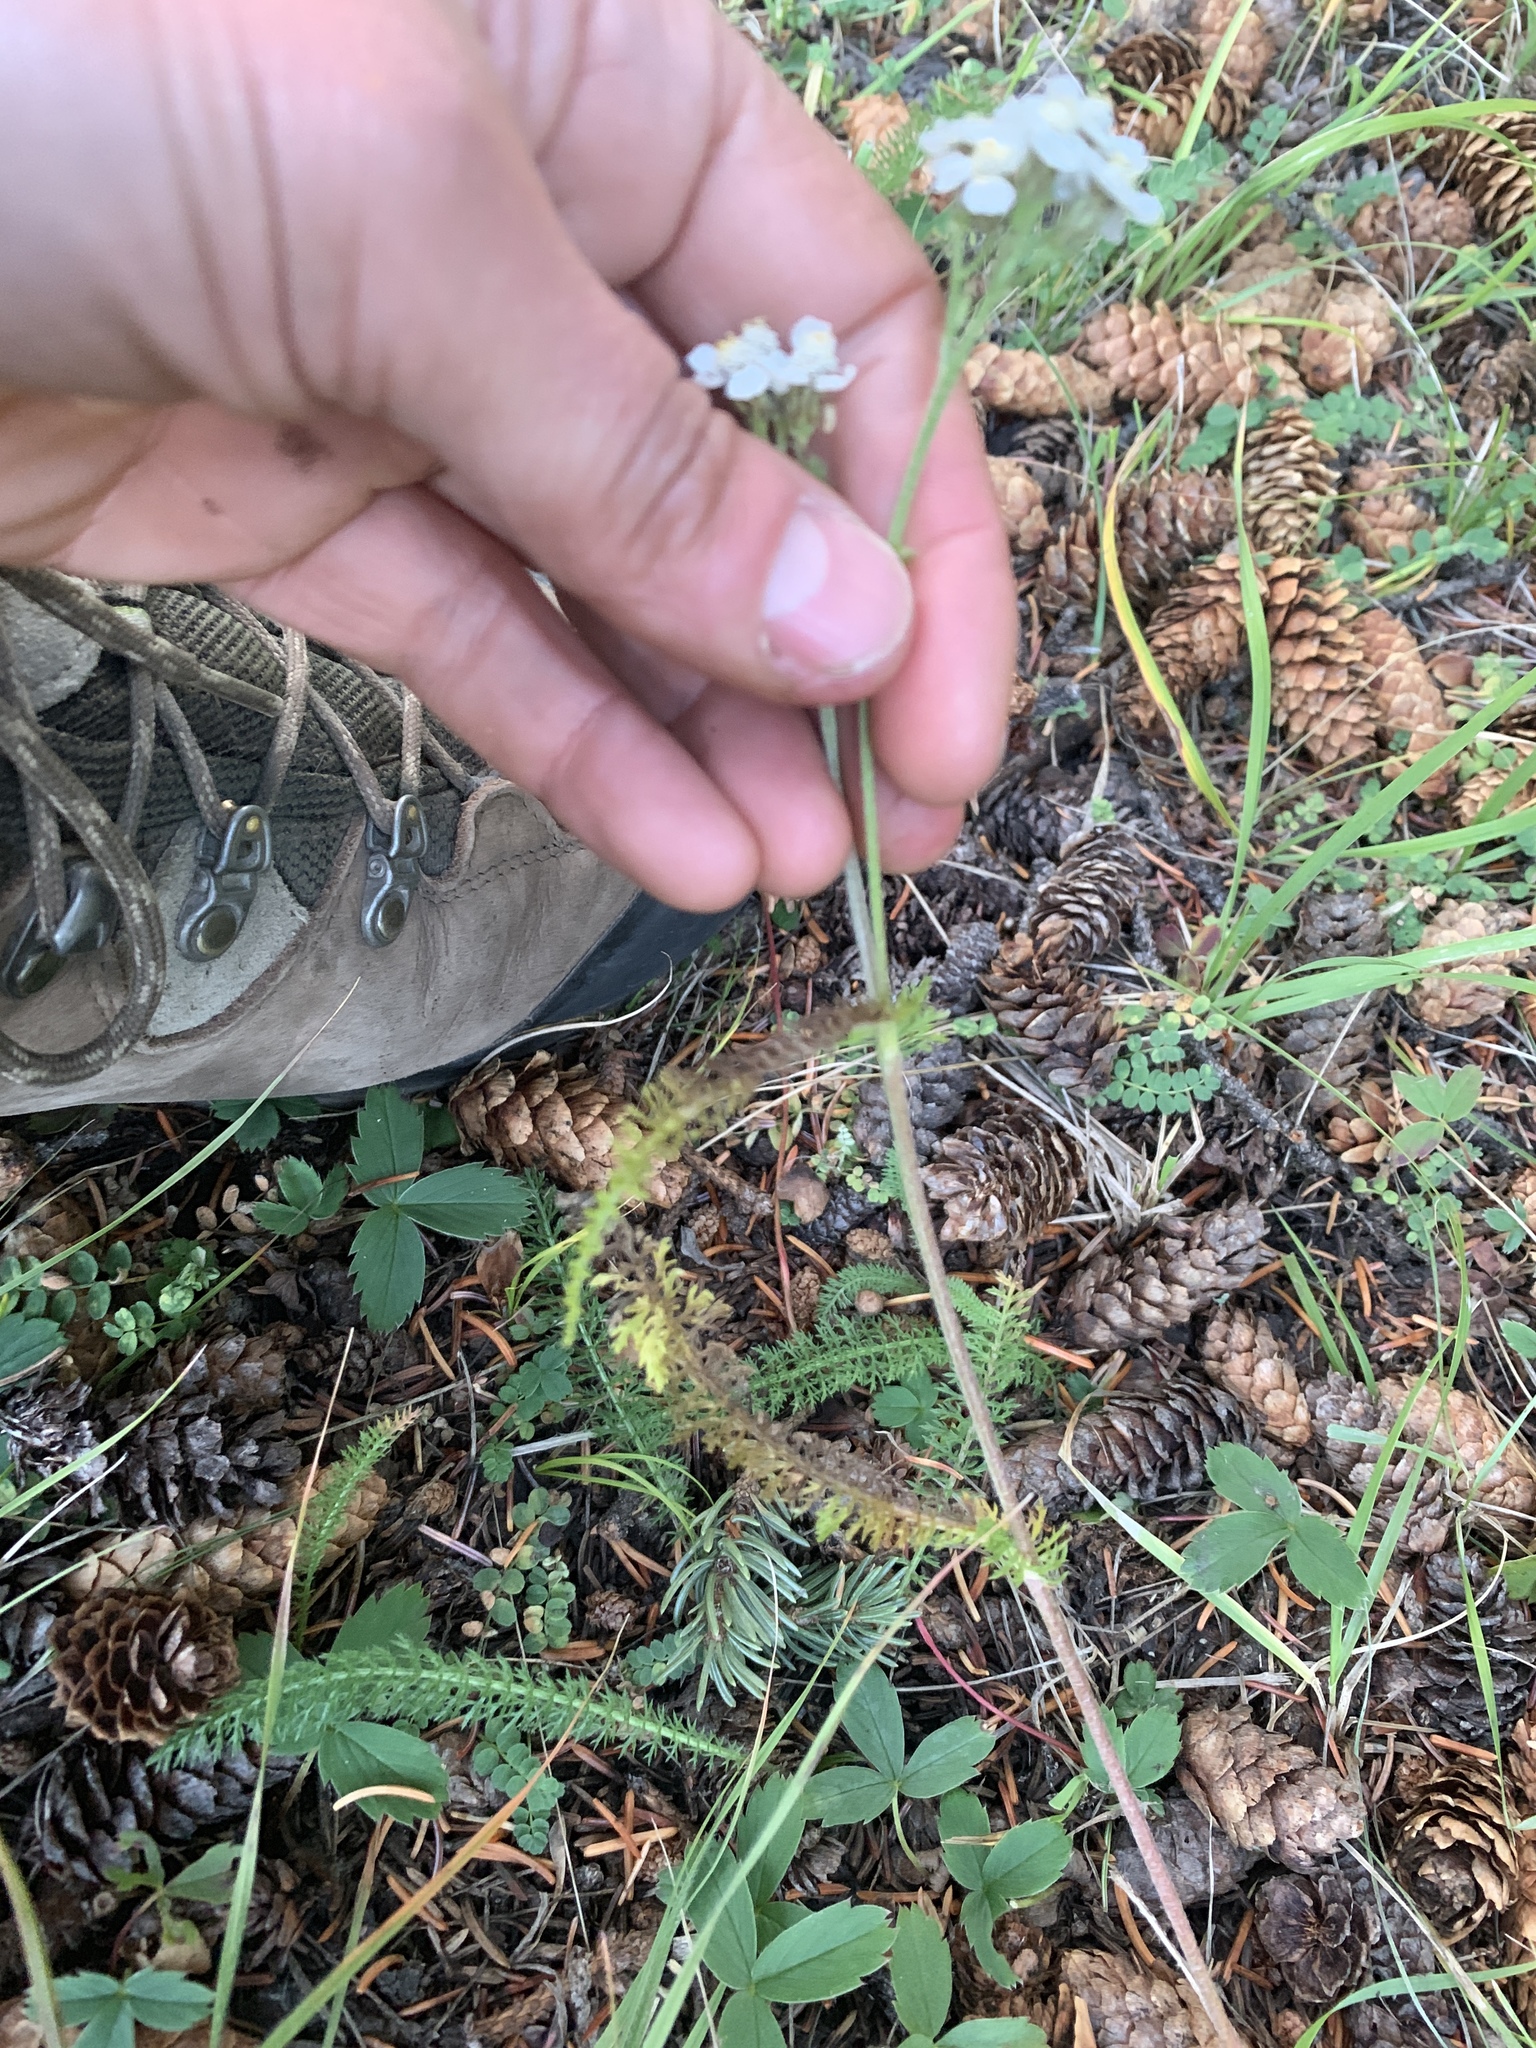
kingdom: Plantae
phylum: Tracheophyta
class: Magnoliopsida
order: Asterales
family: Asteraceae
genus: Achillea
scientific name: Achillea millefolium
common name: Yarrow
